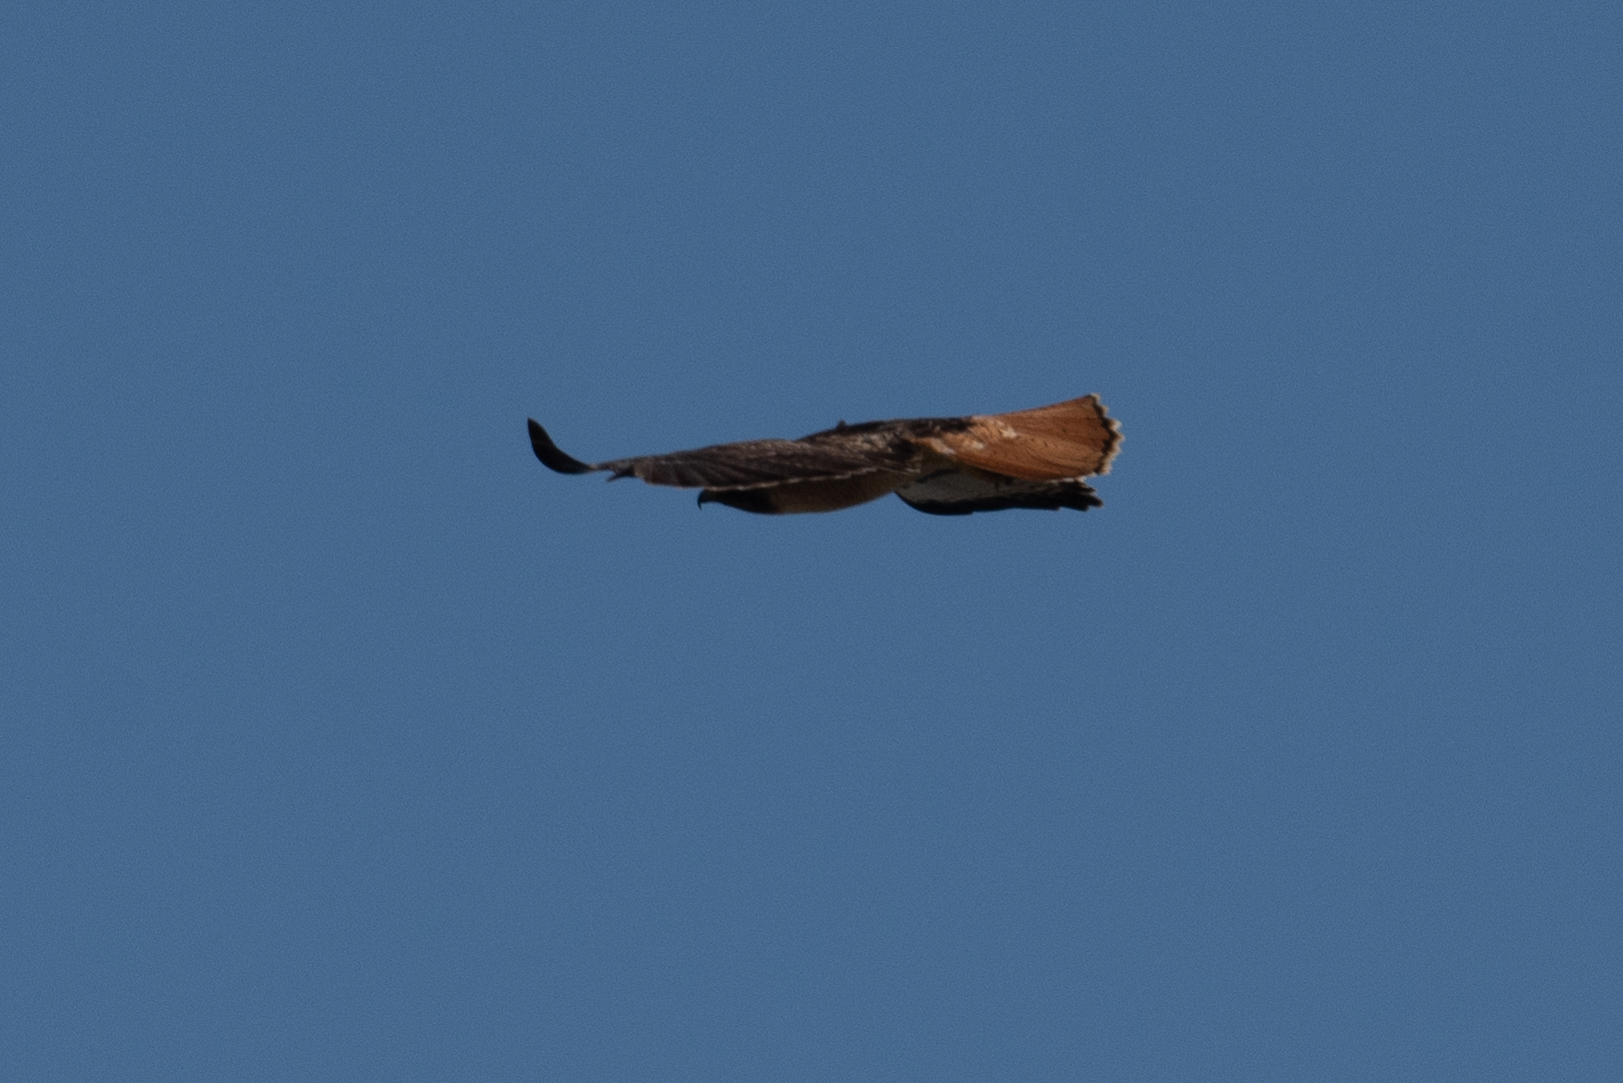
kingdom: Animalia
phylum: Chordata
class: Aves
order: Accipitriformes
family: Accipitridae
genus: Buteo
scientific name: Buteo jamaicensis
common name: Red-tailed hawk
